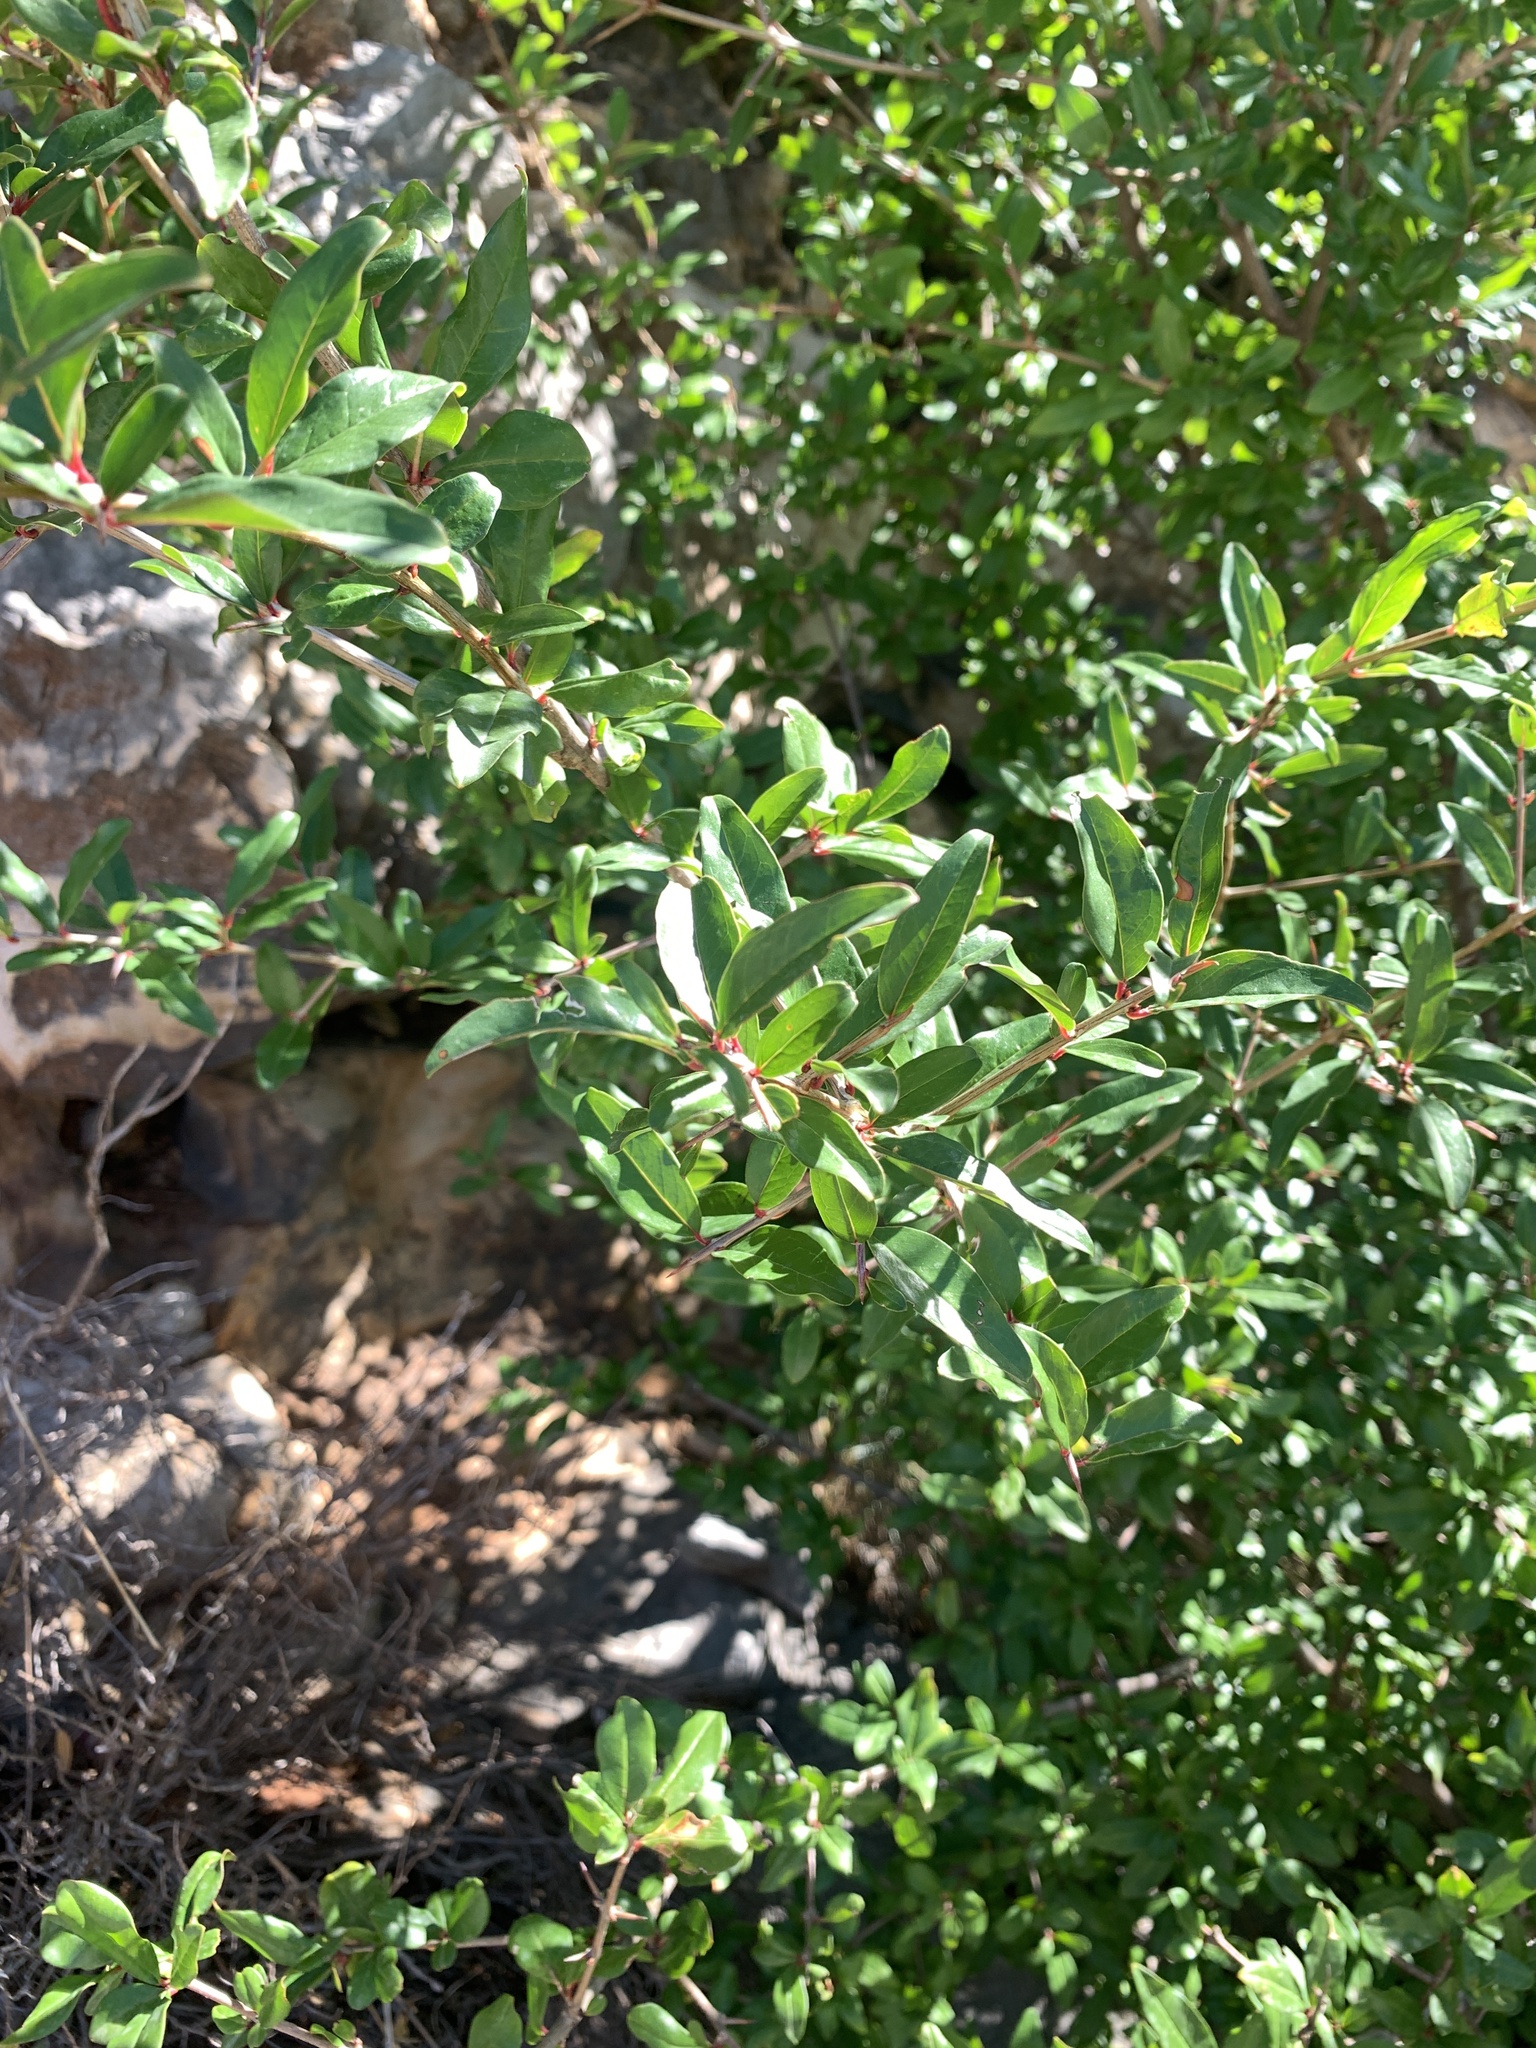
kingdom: Plantae
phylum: Tracheophyta
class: Magnoliopsida
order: Myrtales
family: Lythraceae
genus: Punica
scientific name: Punica granatum
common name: Pomegranate
